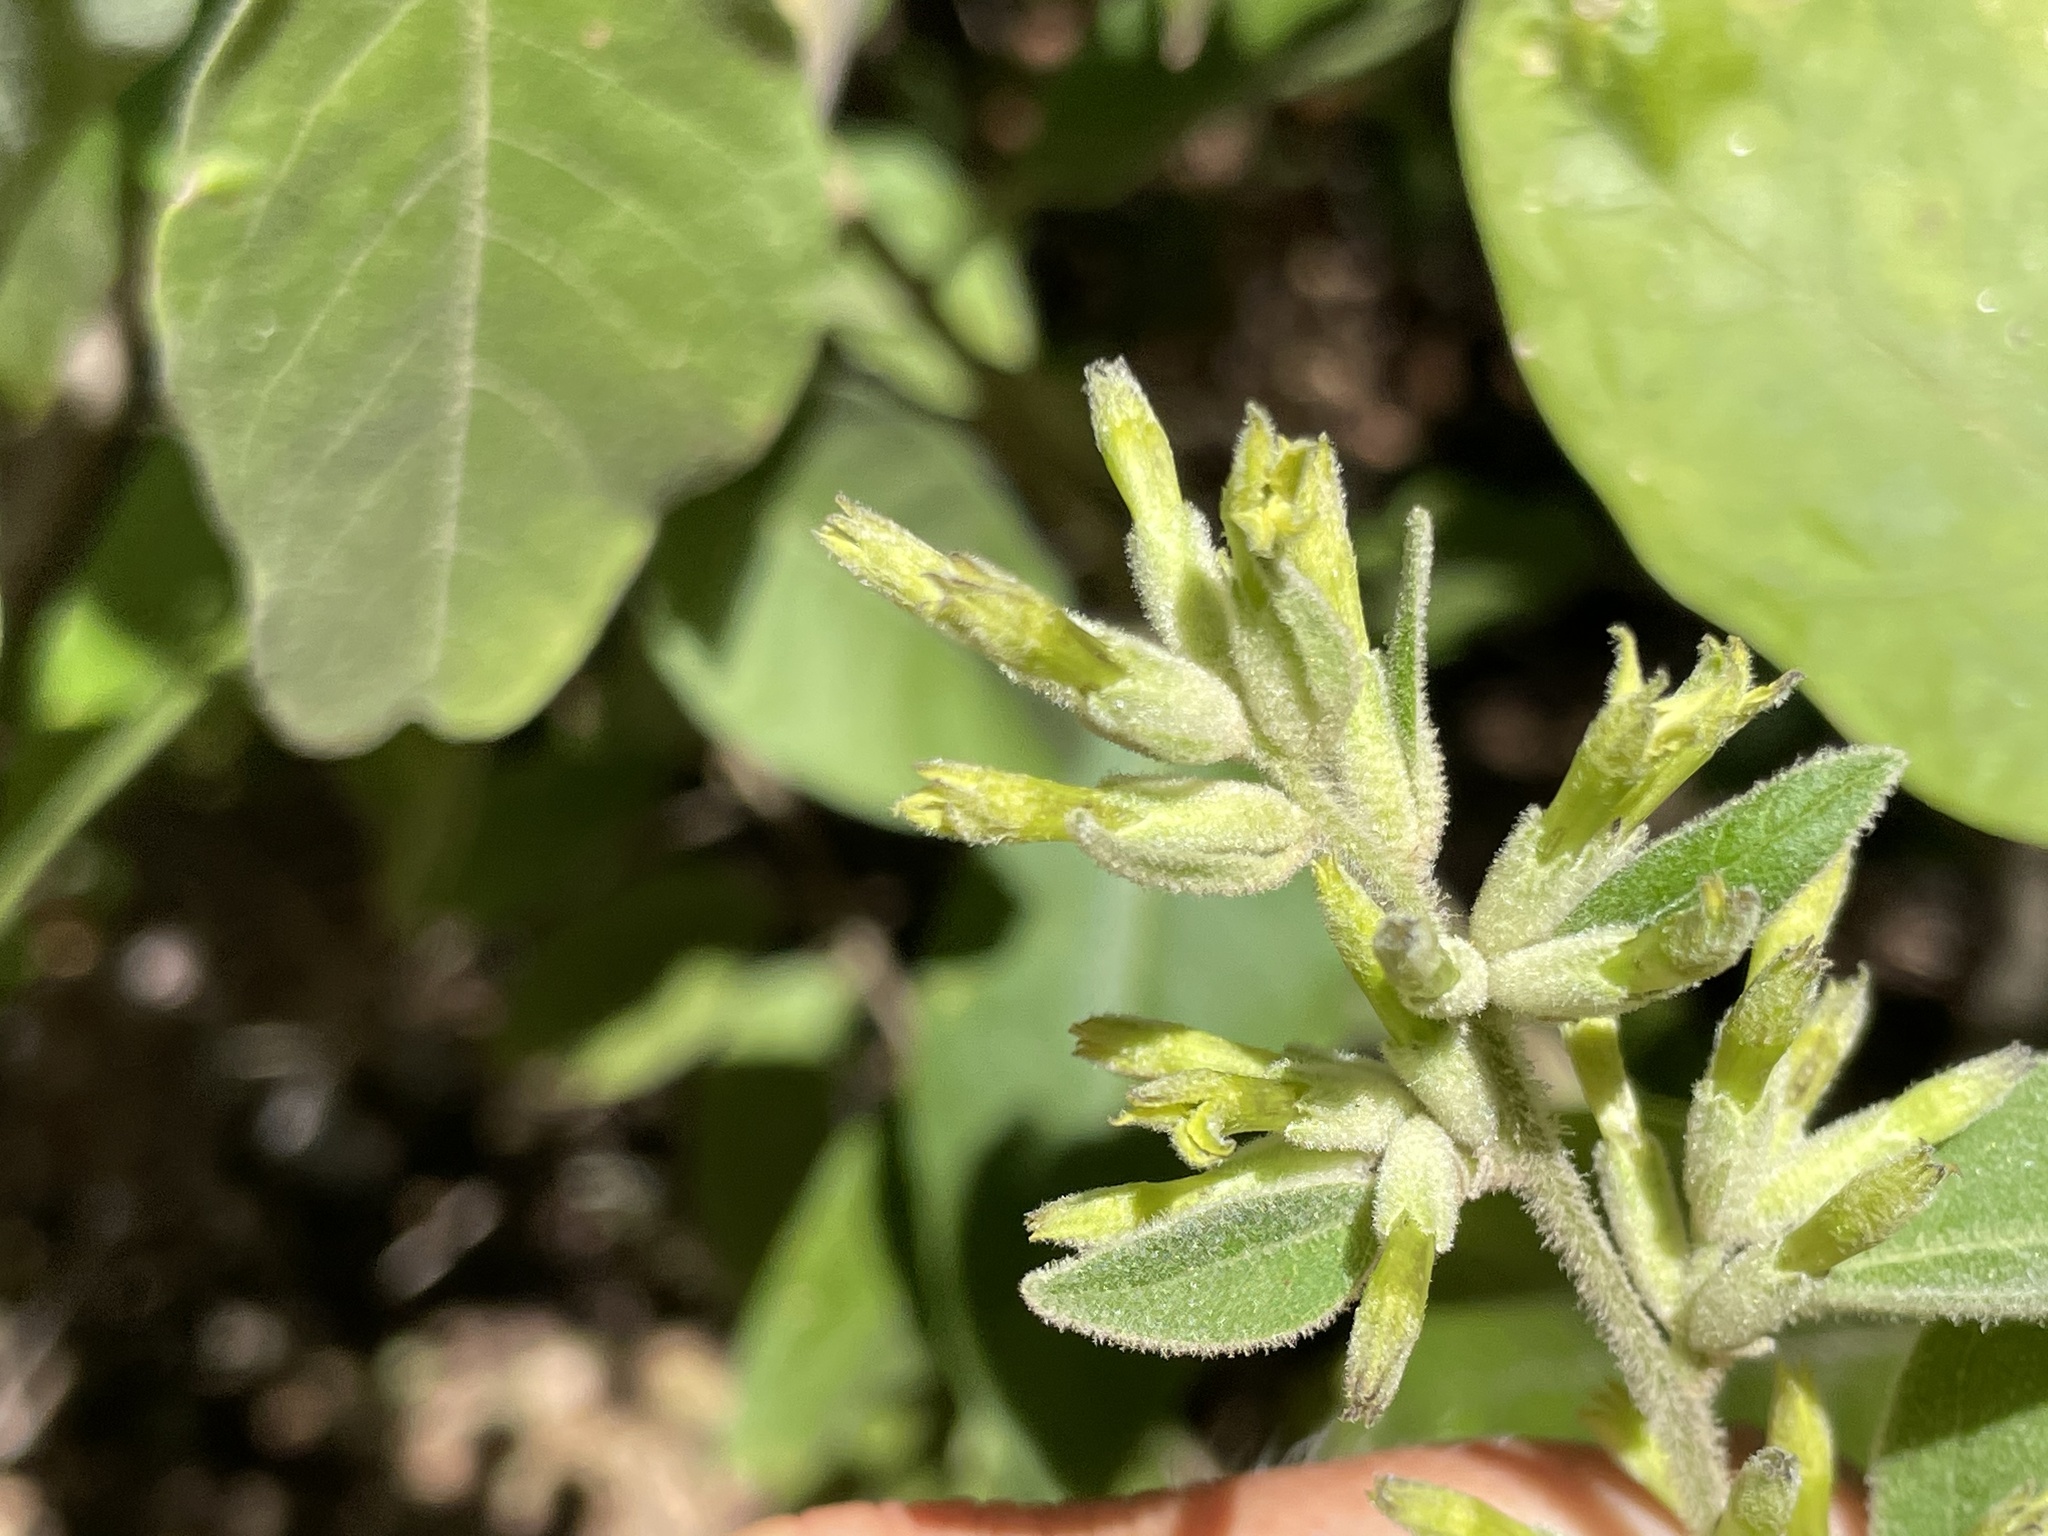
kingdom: Plantae
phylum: Tracheophyta
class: Magnoliopsida
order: Solanales
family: Solanaceae
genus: Cestrum
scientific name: Cestrum pacificum
